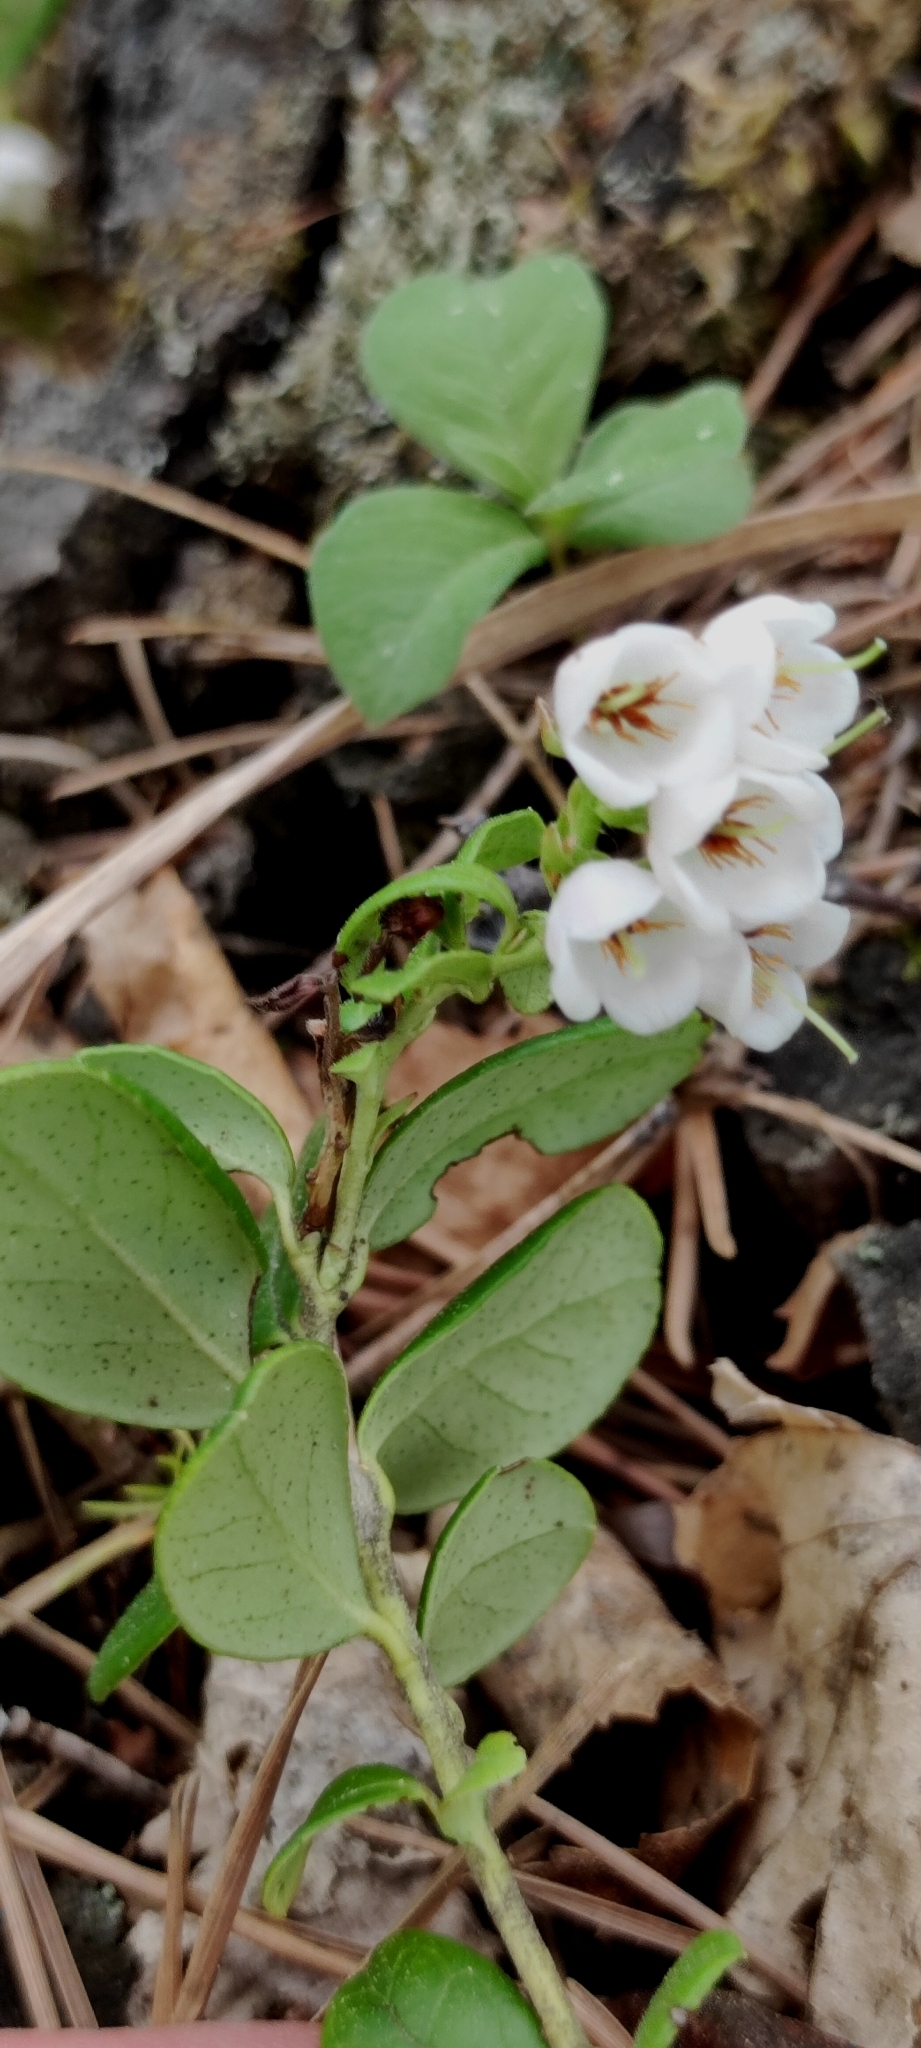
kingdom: Plantae
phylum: Tracheophyta
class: Magnoliopsida
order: Ericales
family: Ericaceae
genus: Vaccinium
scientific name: Vaccinium vitis-idaea
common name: Cowberry
